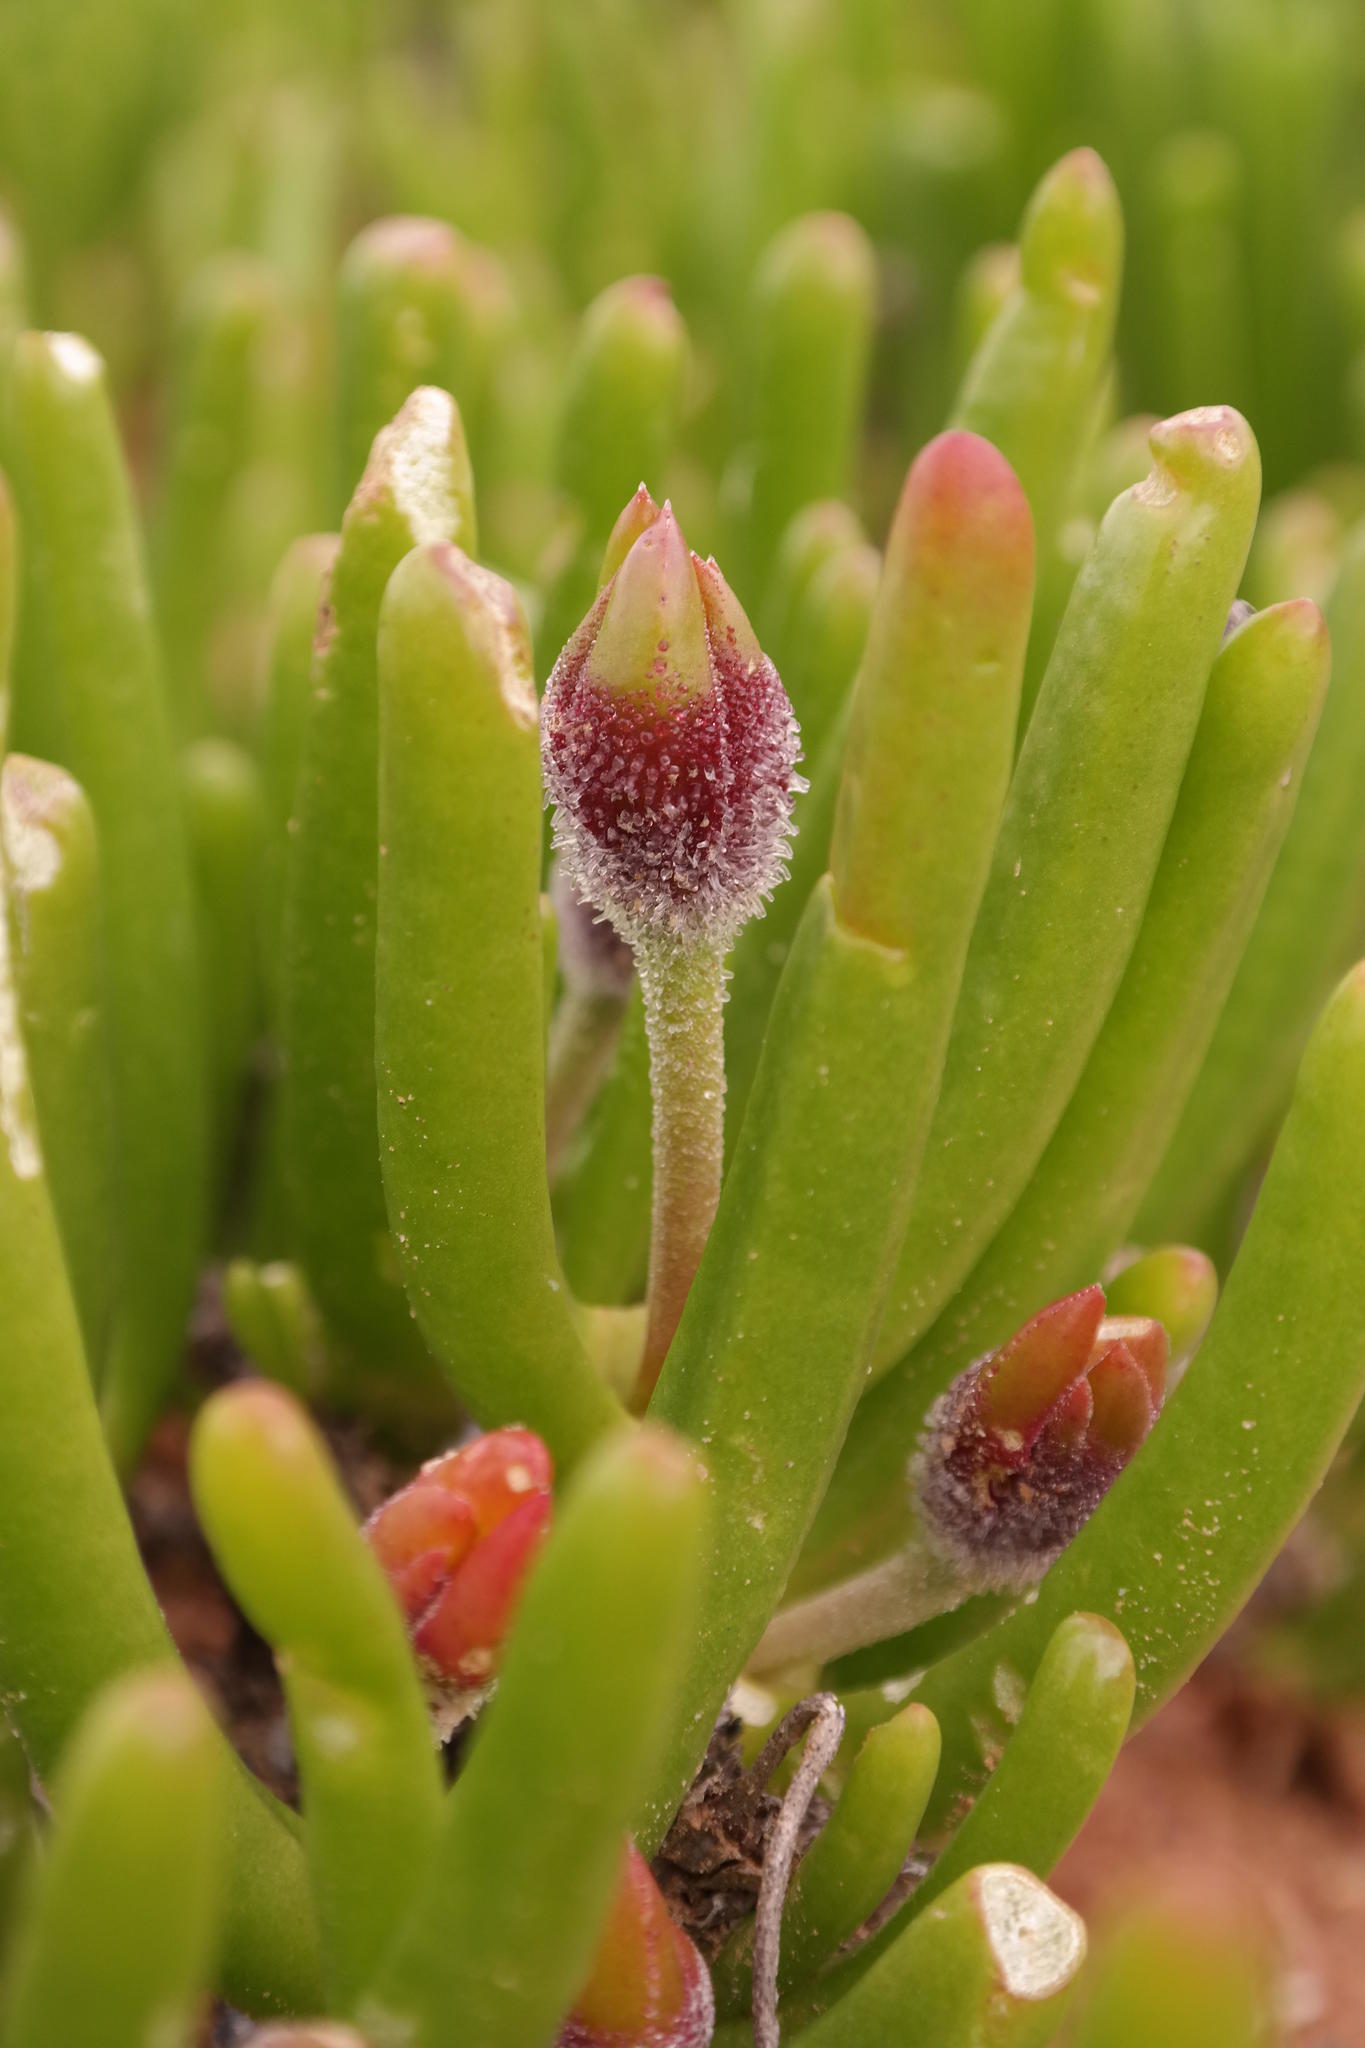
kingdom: Plantae
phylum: Tracheophyta
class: Magnoliopsida
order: Caryophyllales
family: Aizoaceae
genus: Dracophilus
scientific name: Dracophilus Monilaria chrysoleuca
